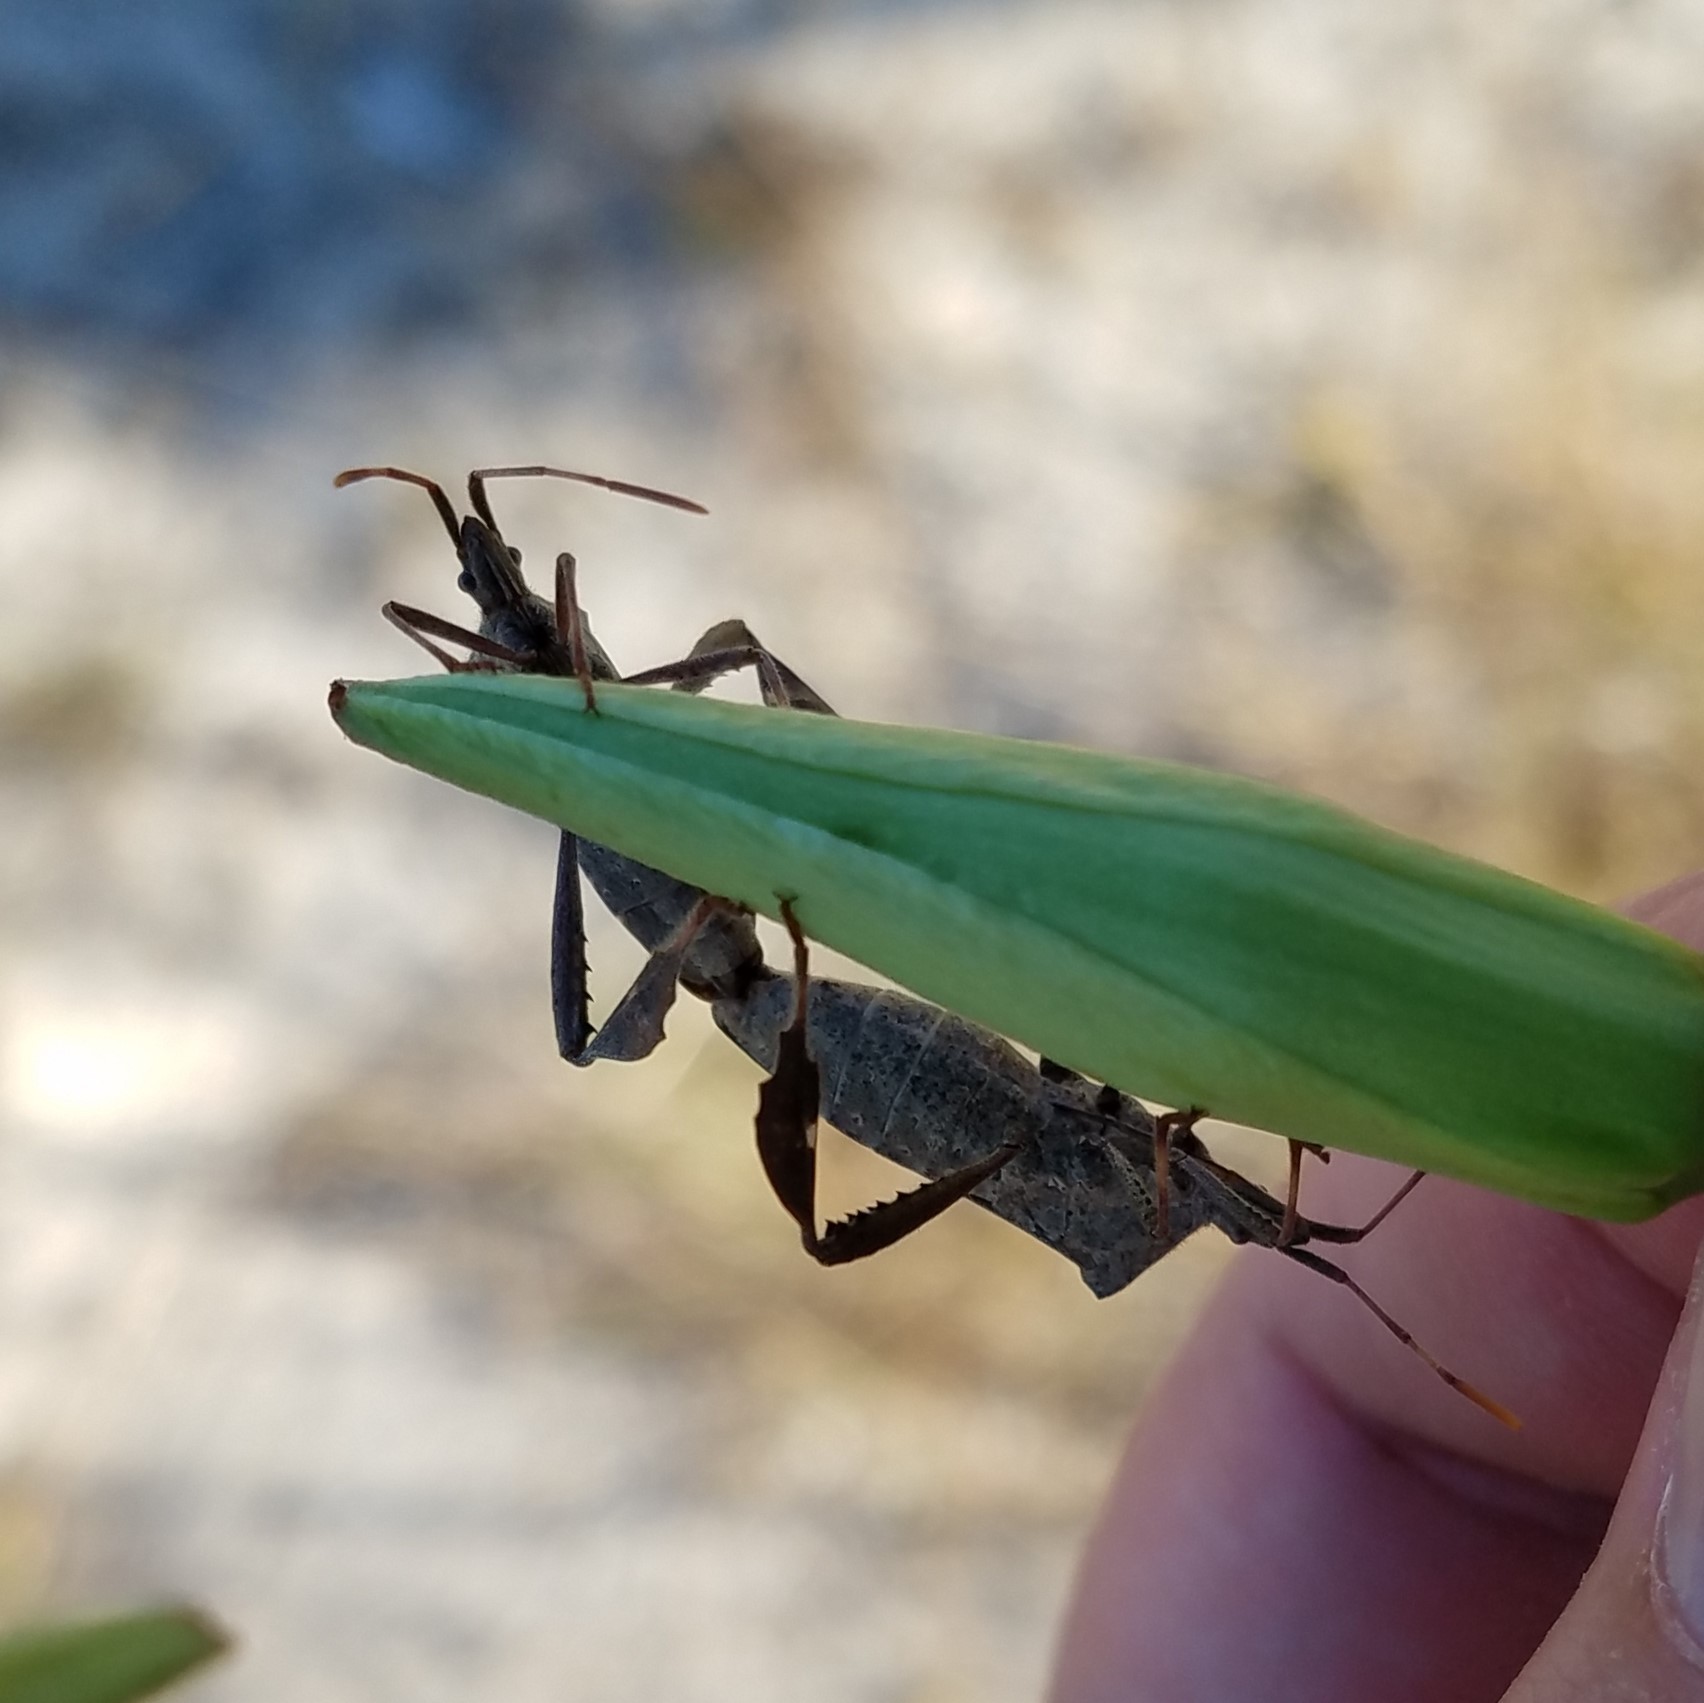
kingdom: Animalia
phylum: Arthropoda
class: Insecta
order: Hemiptera
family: Coreidae
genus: Leptoglossus
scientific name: Leptoglossus phyllopus
